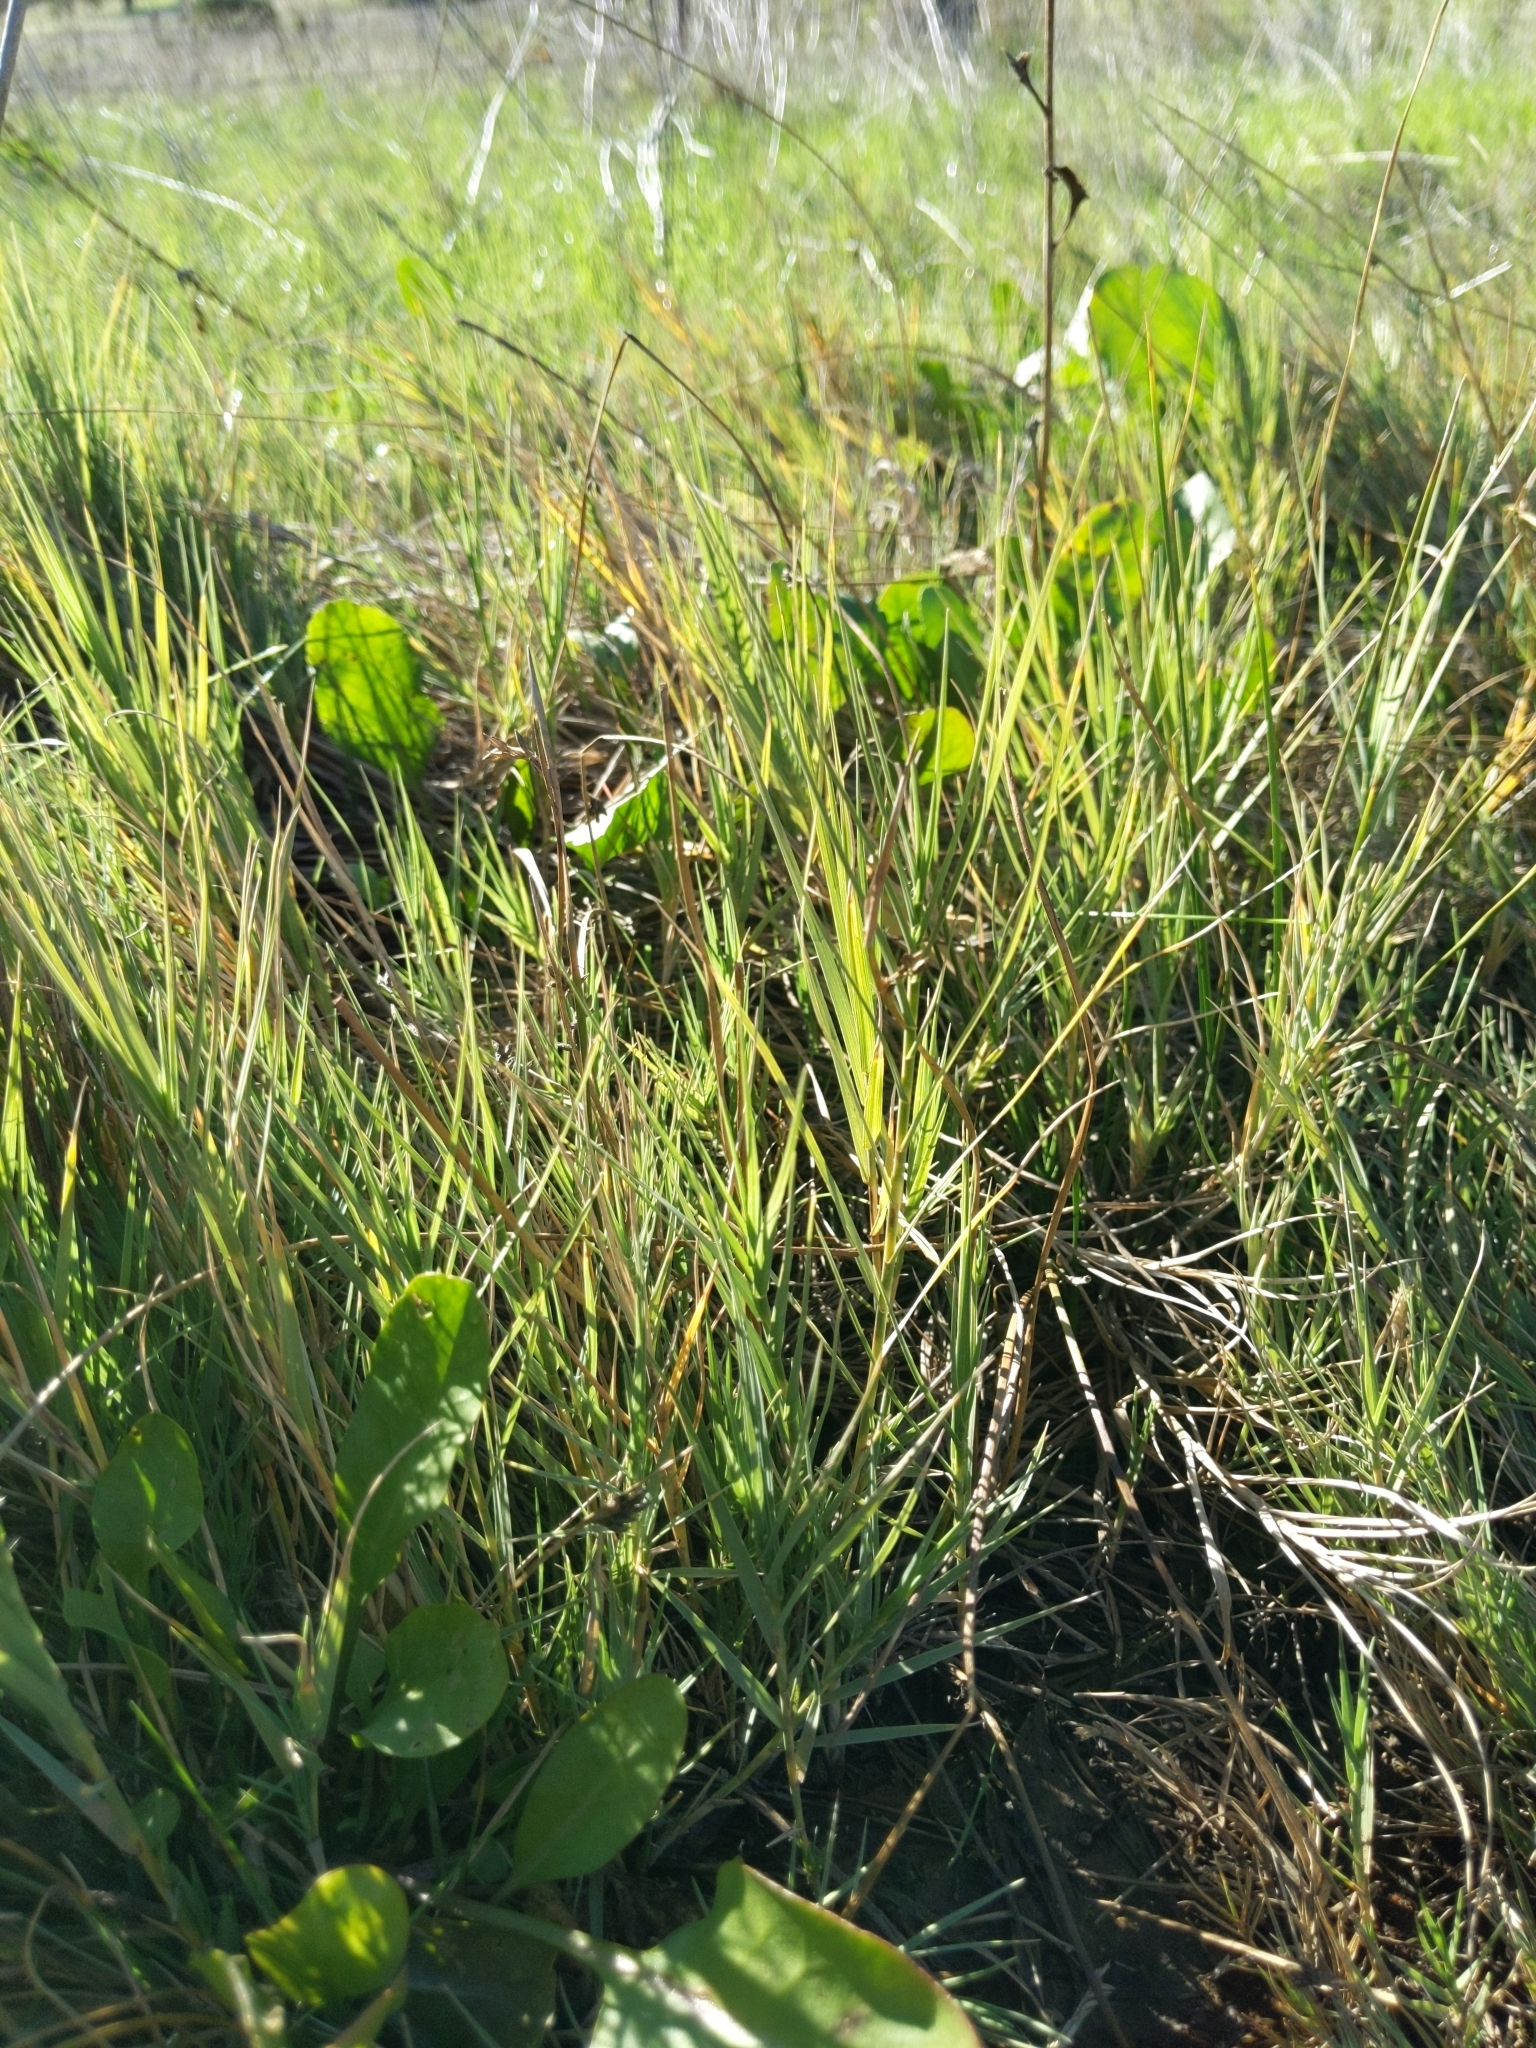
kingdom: Plantae
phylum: Tracheophyta
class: Liliopsida
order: Poales
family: Poaceae
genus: Distichlis
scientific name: Distichlis spicata
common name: Saltgrass
